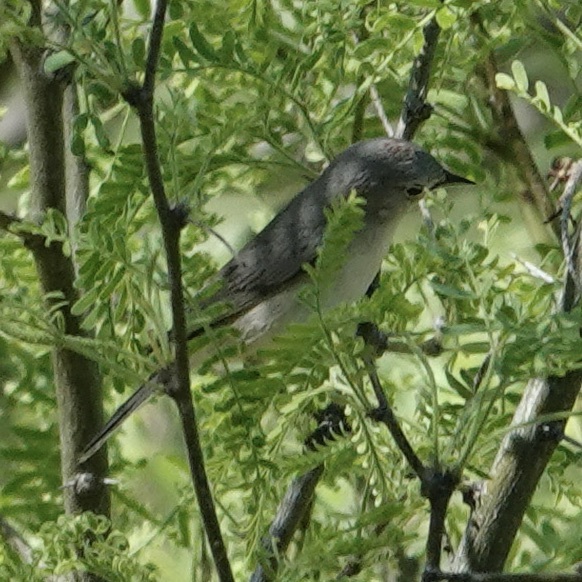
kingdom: Animalia
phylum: Chordata
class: Aves
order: Passeriformes
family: Parulidae
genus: Leiothlypis
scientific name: Leiothlypis luciae
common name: Lucy's warbler
